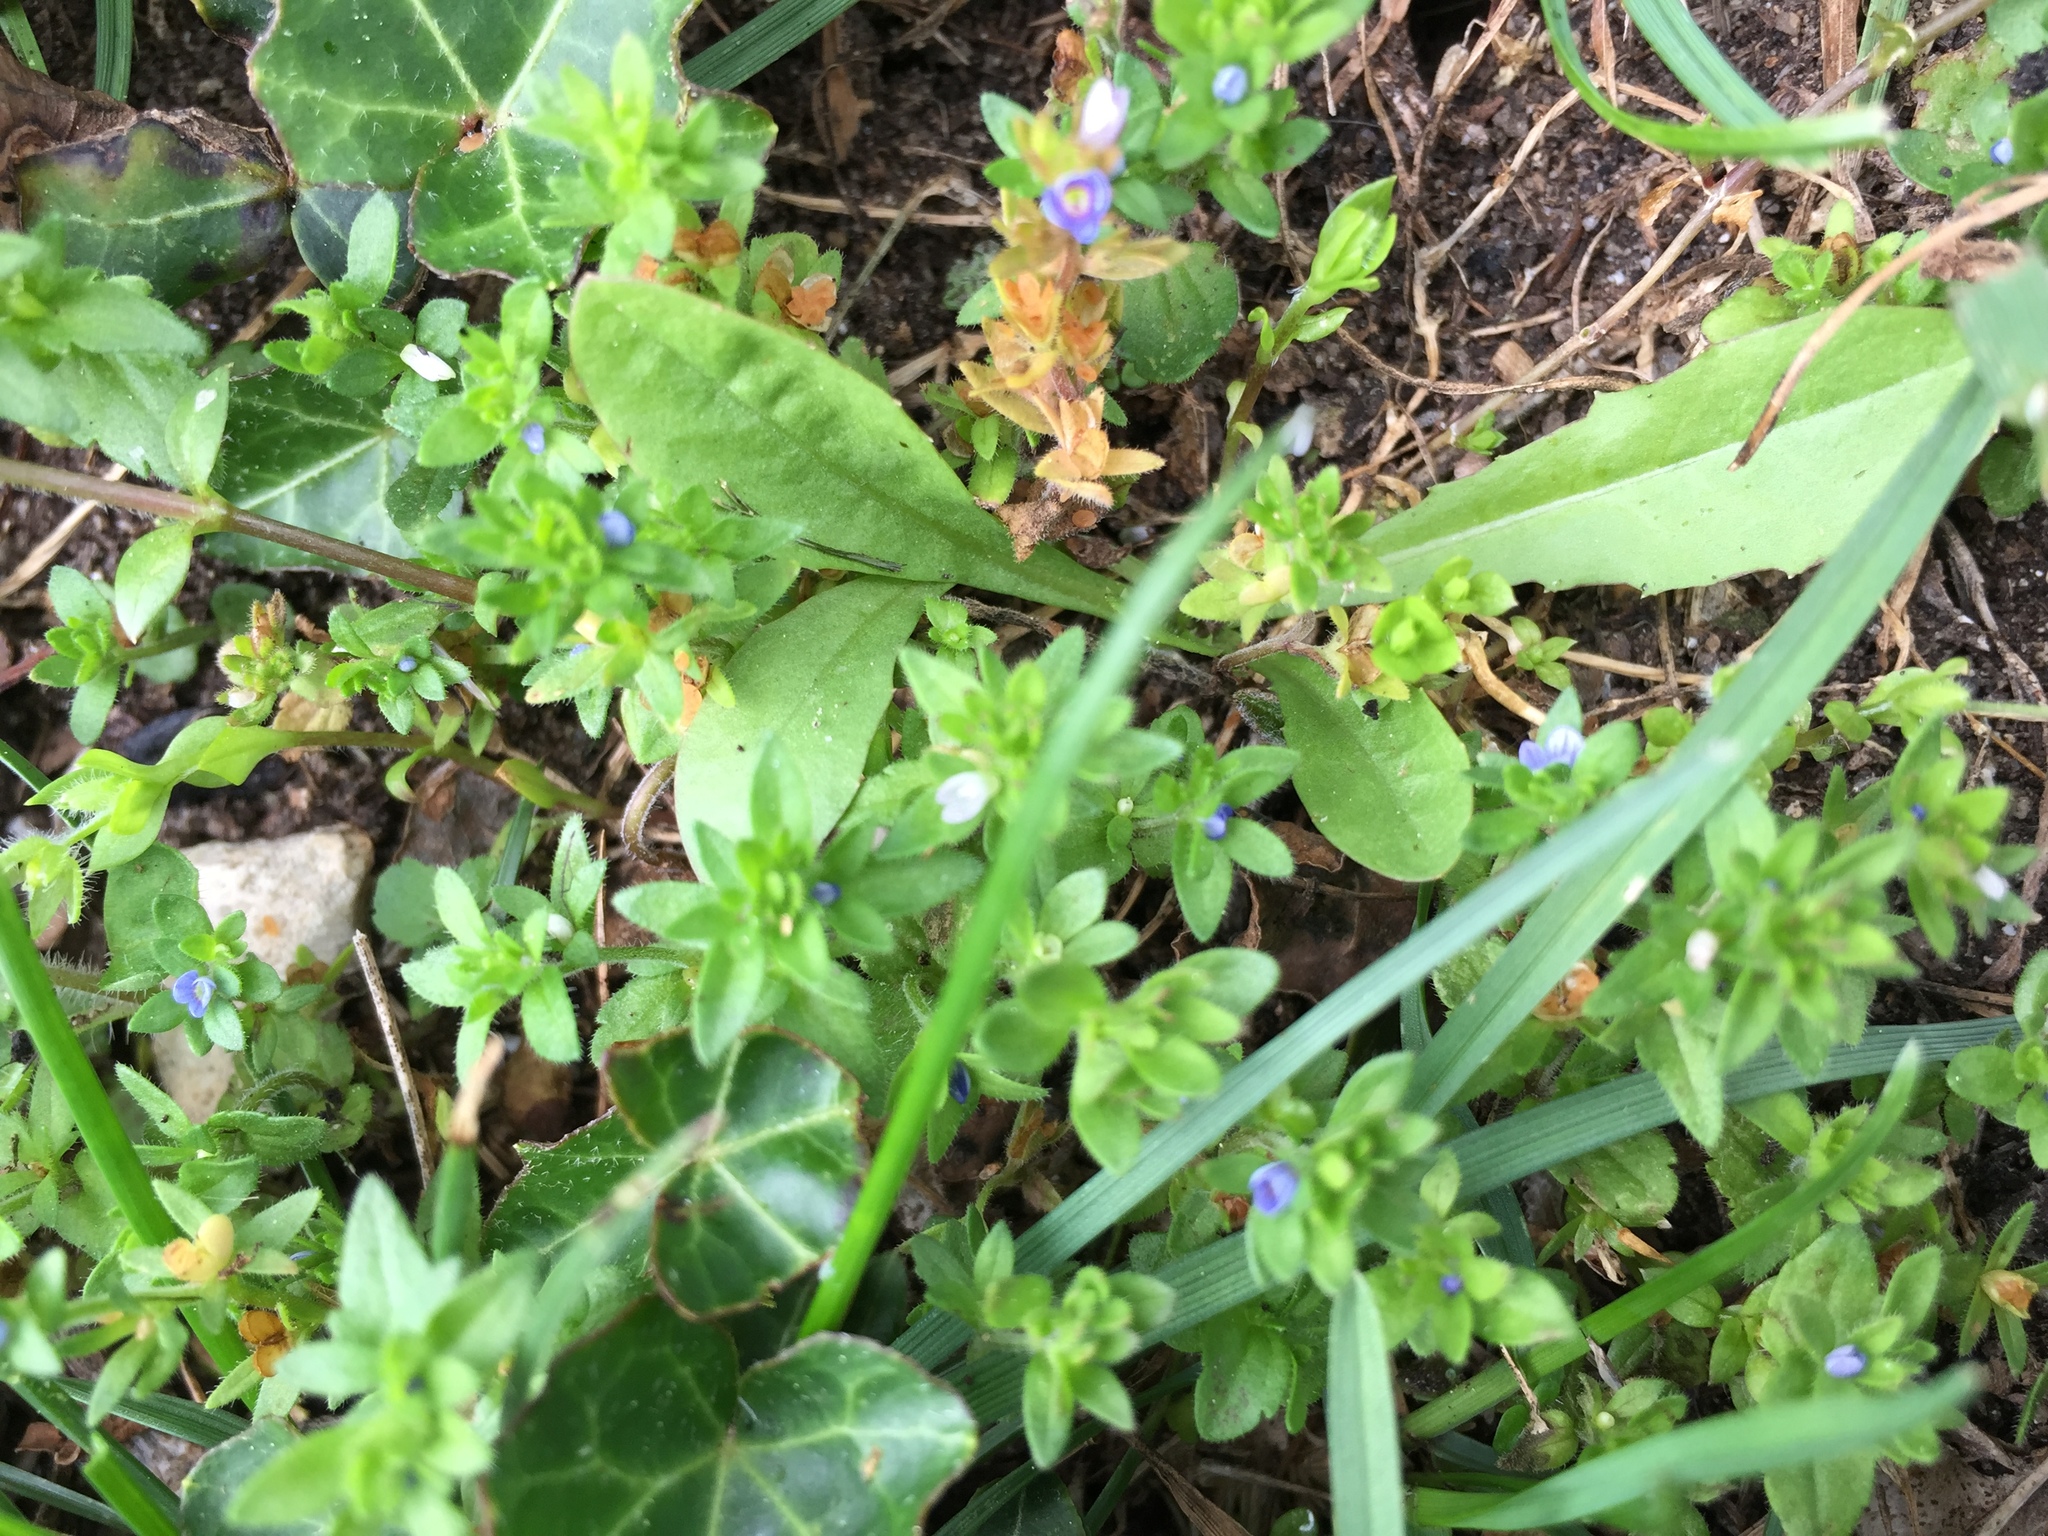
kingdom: Plantae
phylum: Tracheophyta
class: Magnoliopsida
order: Lamiales
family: Plantaginaceae
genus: Veronica
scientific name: Veronica arvensis
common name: Corn speedwell
